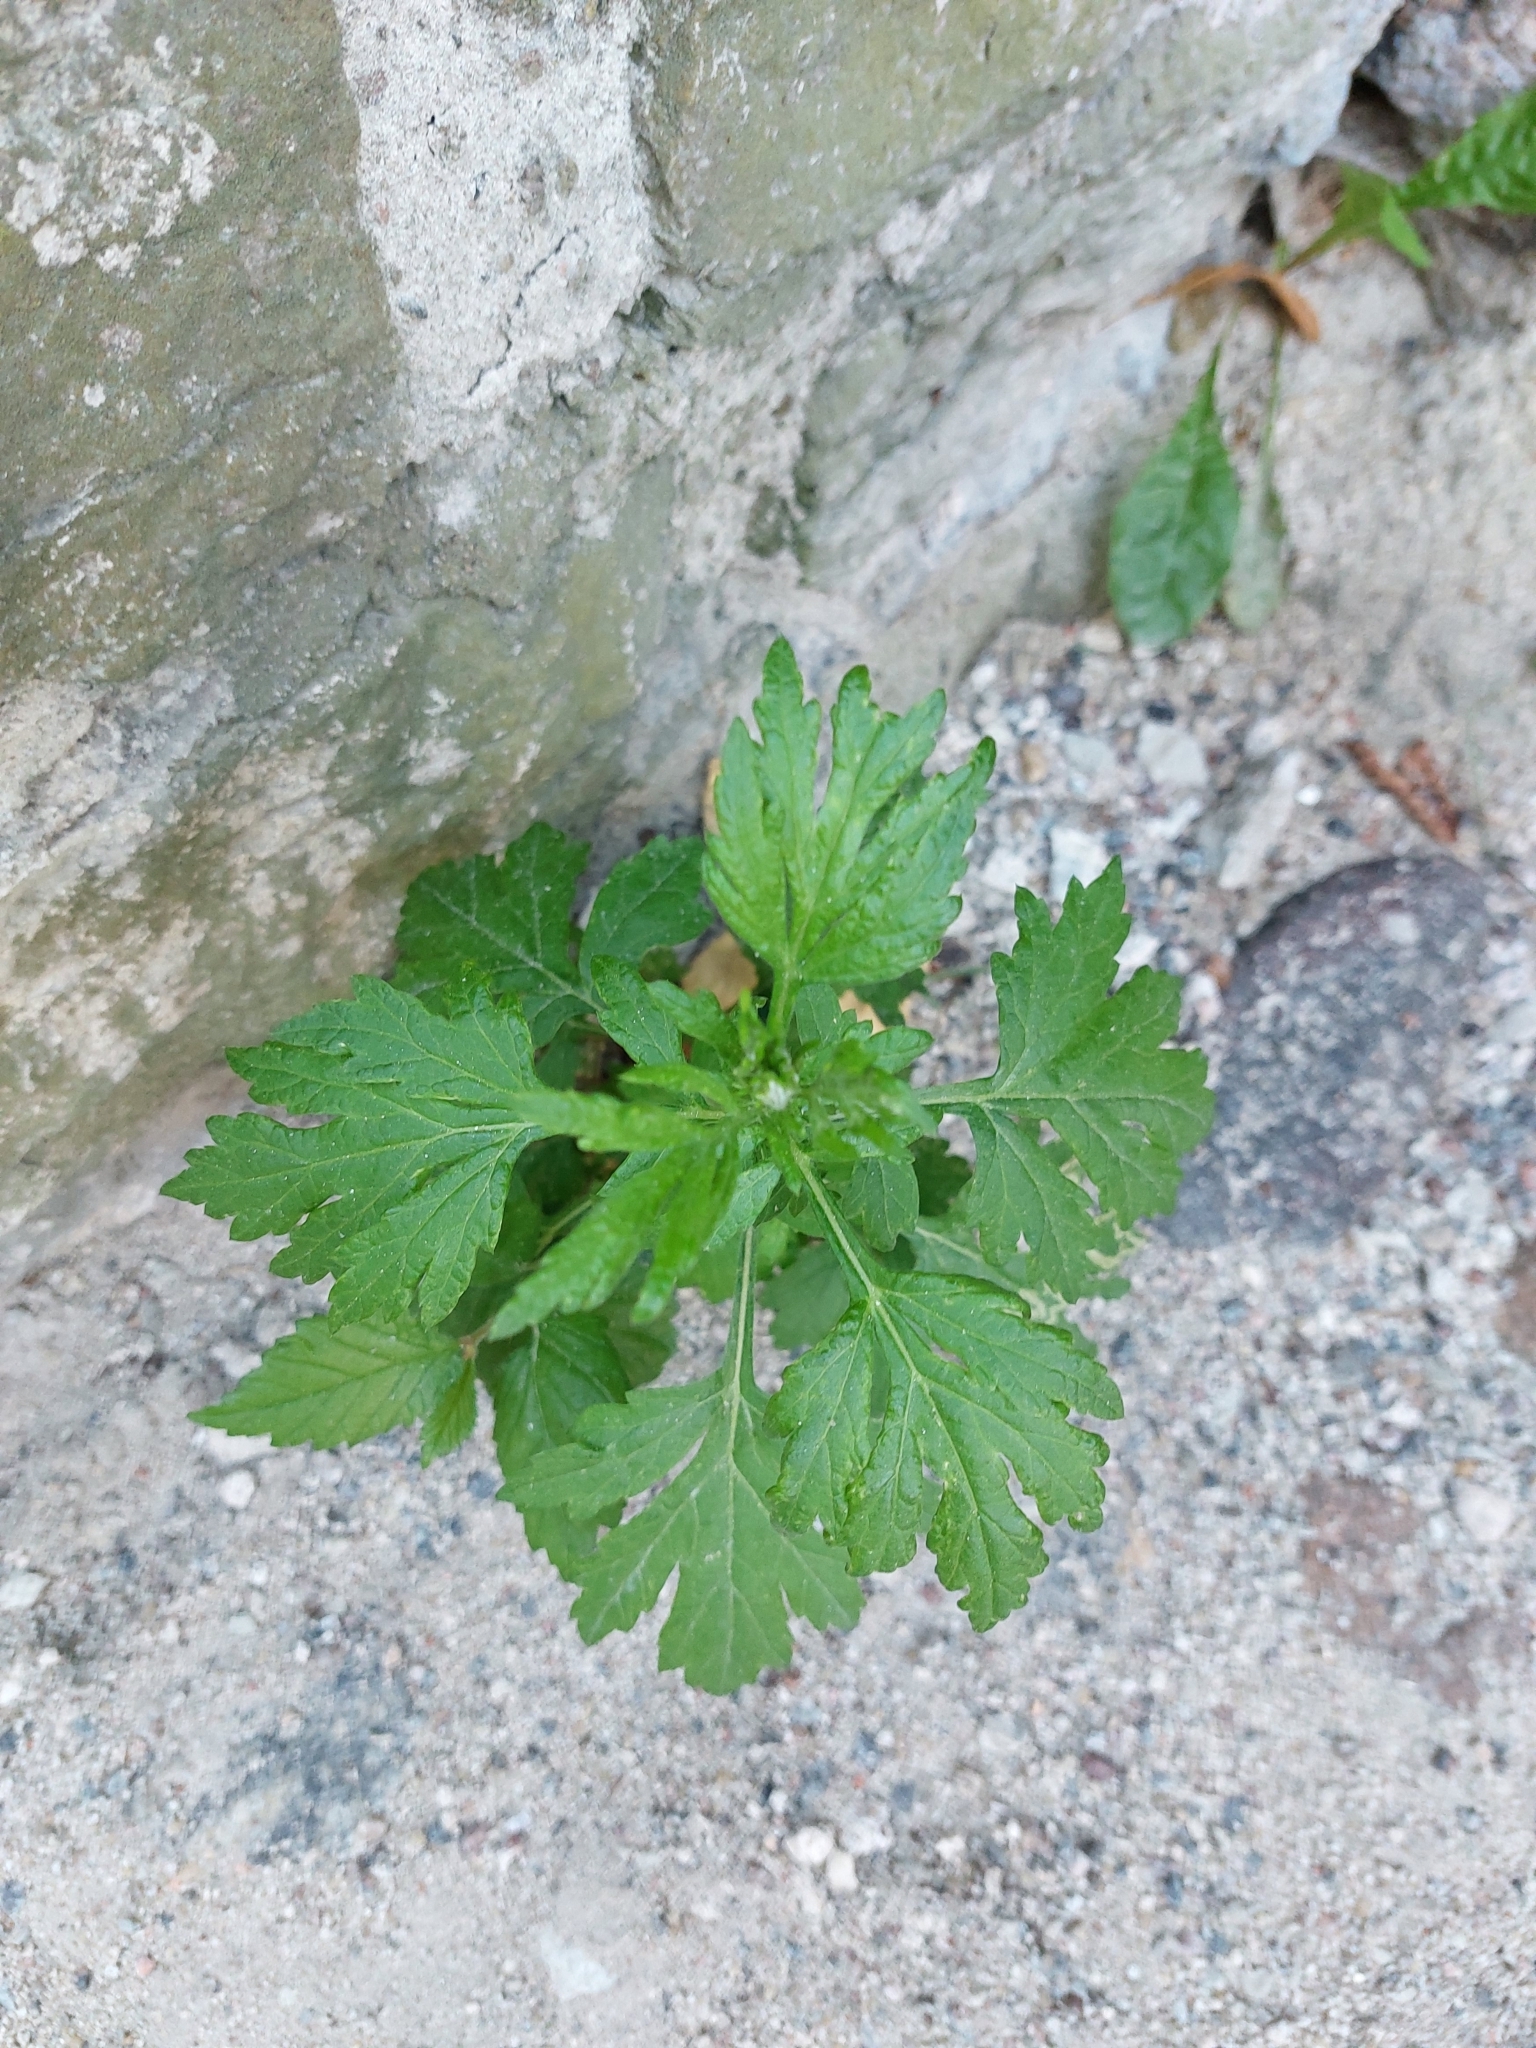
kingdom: Plantae
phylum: Tracheophyta
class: Magnoliopsida
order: Asterales
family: Asteraceae
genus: Artemisia
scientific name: Artemisia vulgaris
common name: Mugwort
